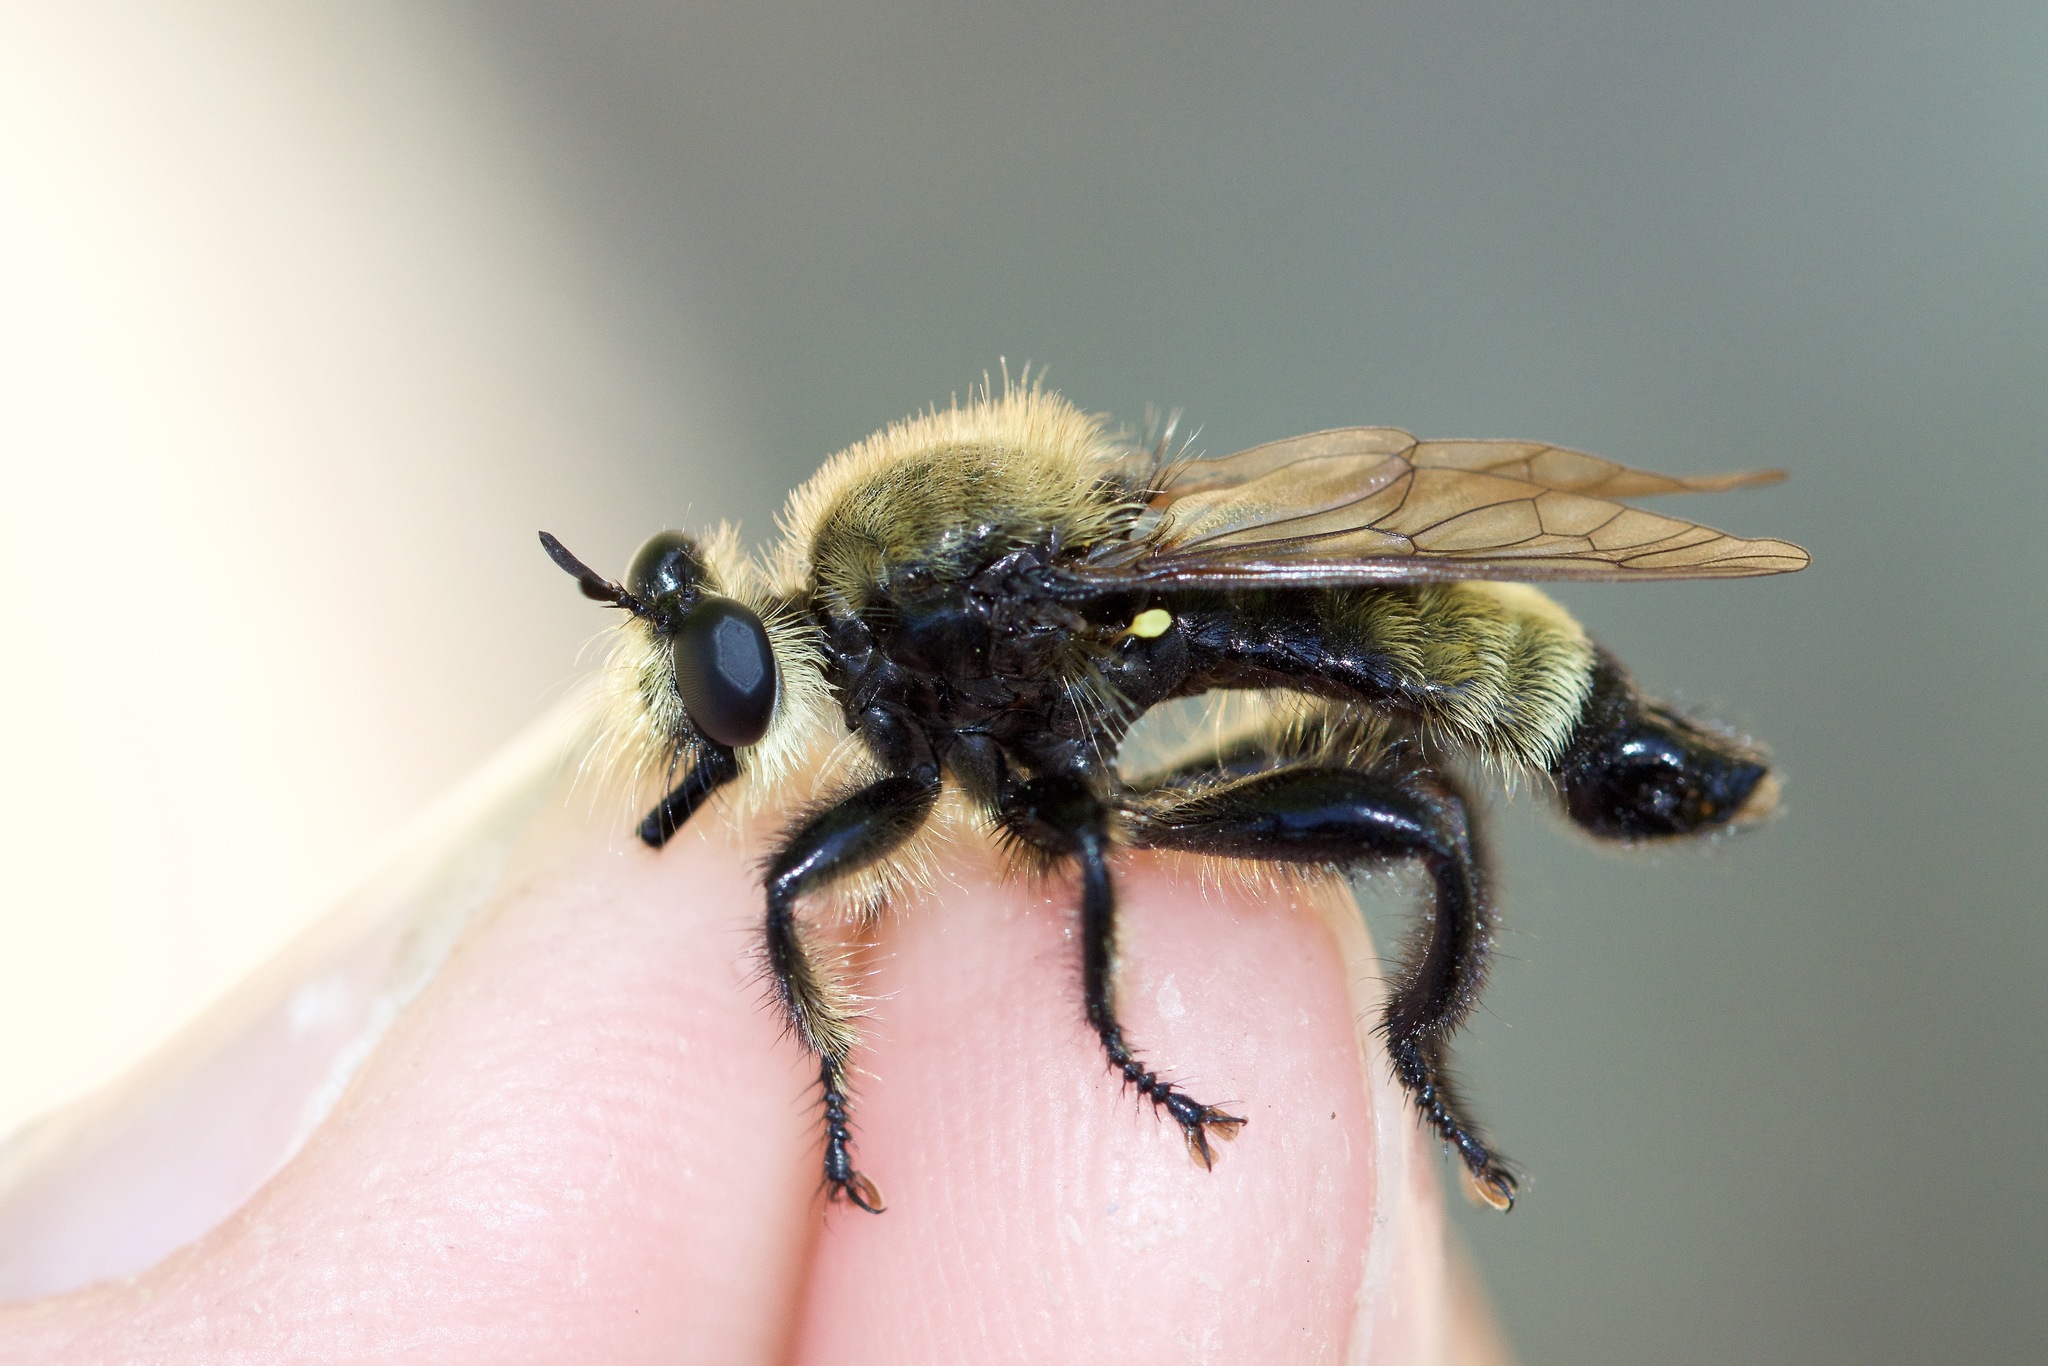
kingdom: Animalia
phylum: Arthropoda
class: Insecta
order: Diptera
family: Asilidae
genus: Laphria
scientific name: Laphria posticata
